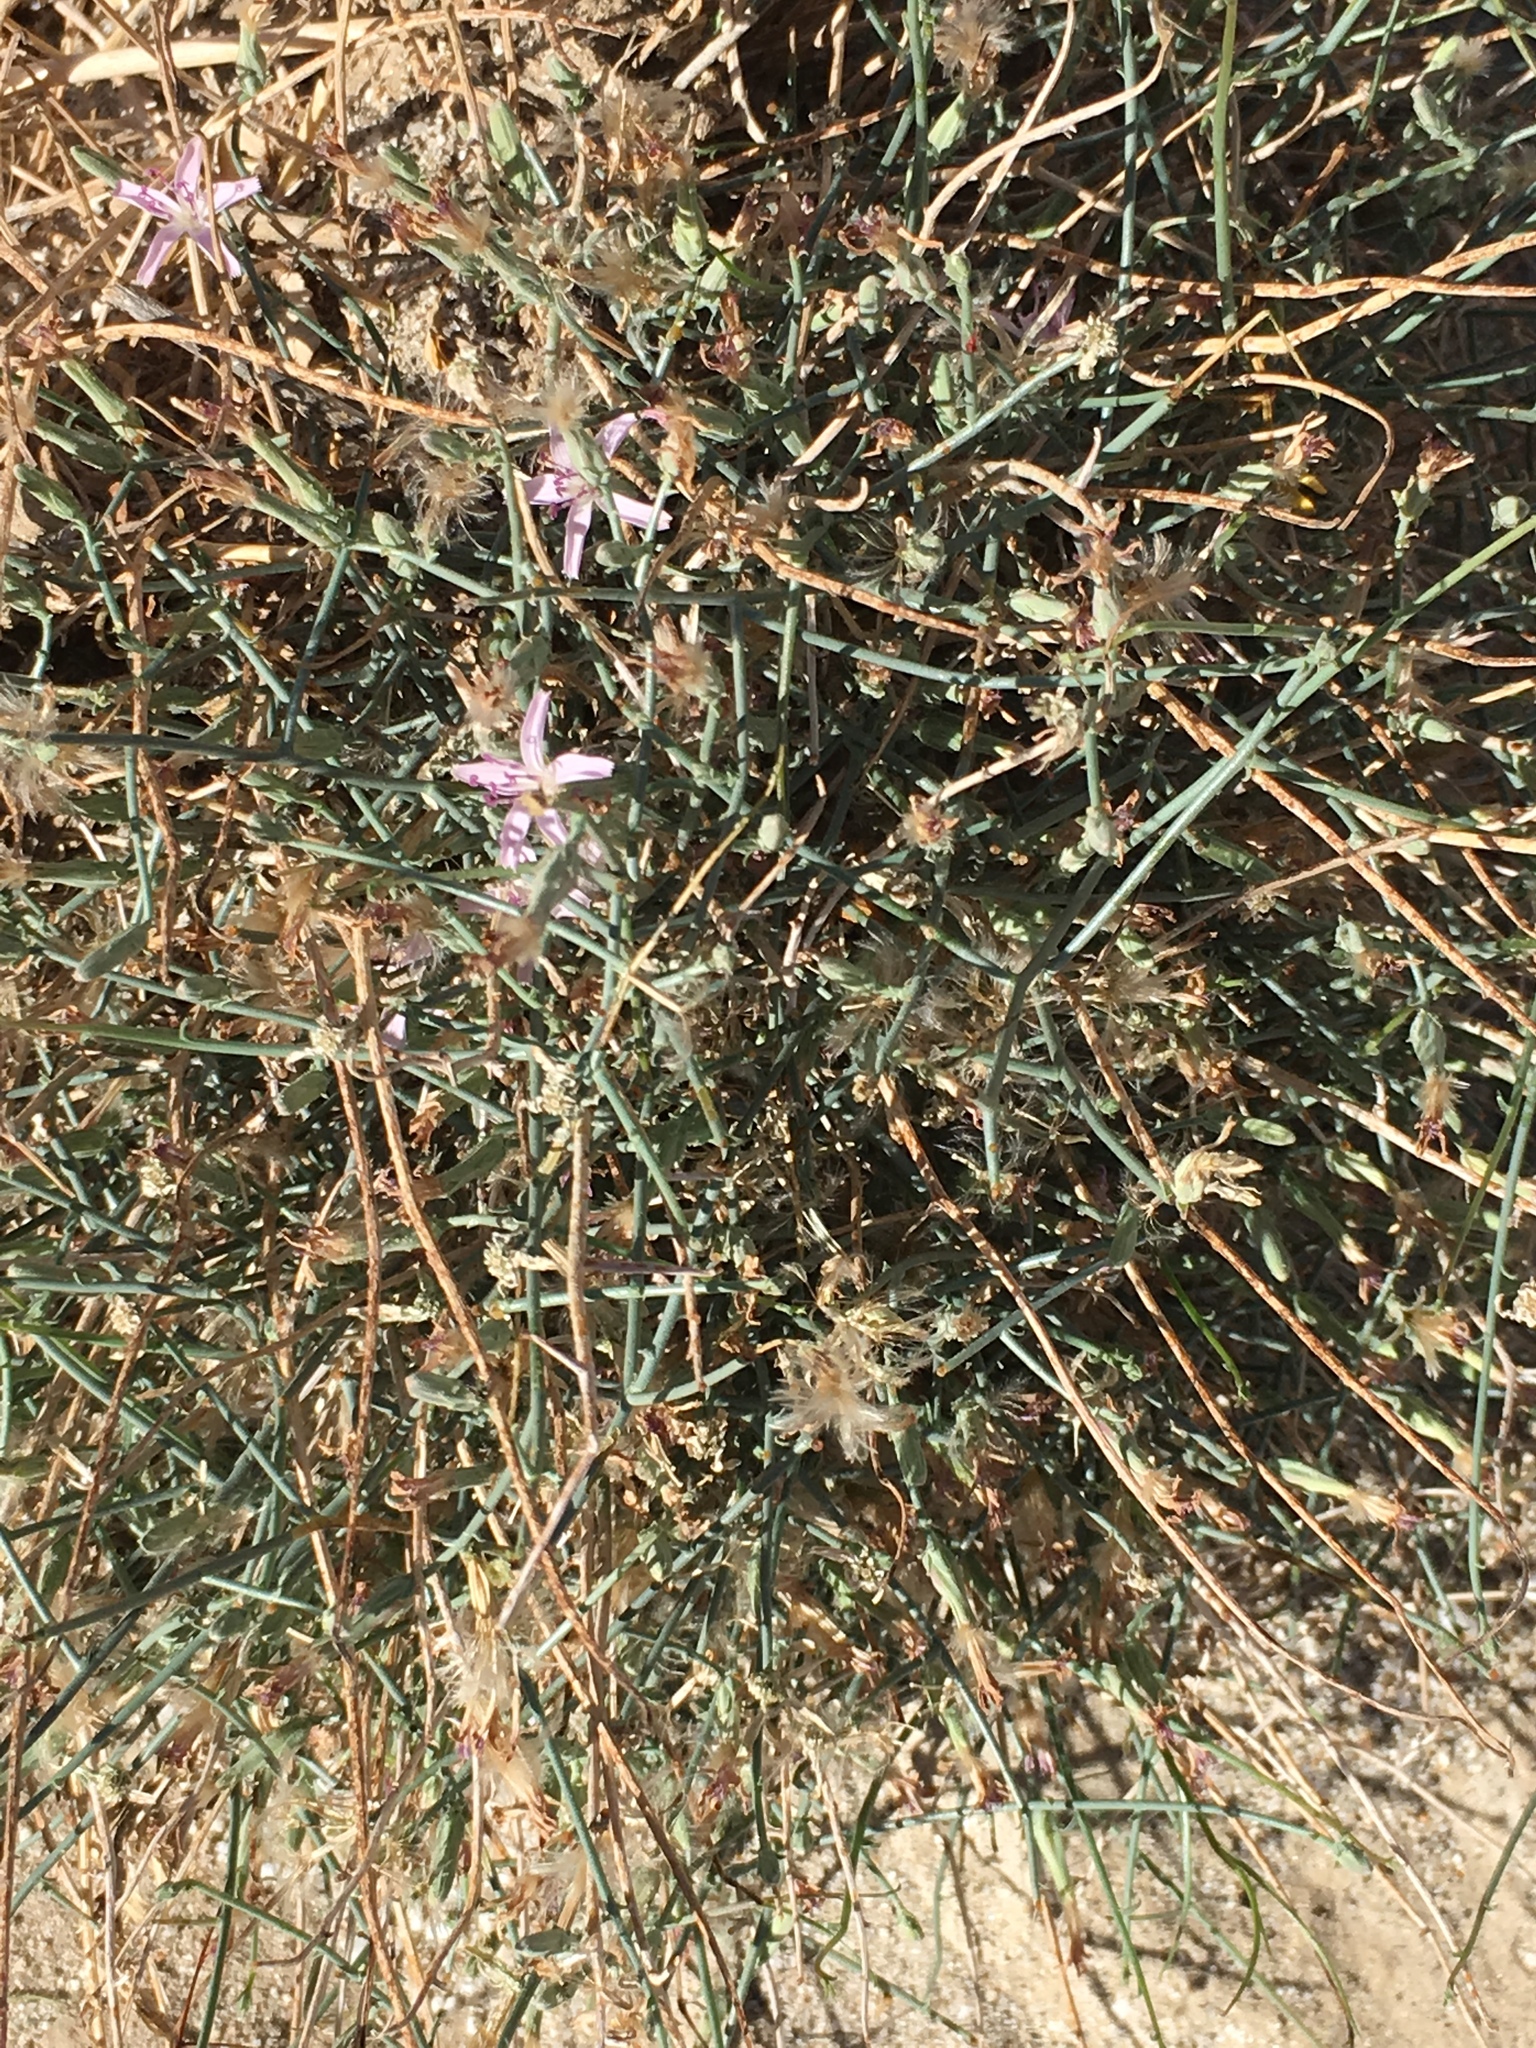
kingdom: Plantae
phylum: Tracheophyta
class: Magnoliopsida
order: Asterales
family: Asteraceae
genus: Stephanomeria
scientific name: Stephanomeria pauciflora
